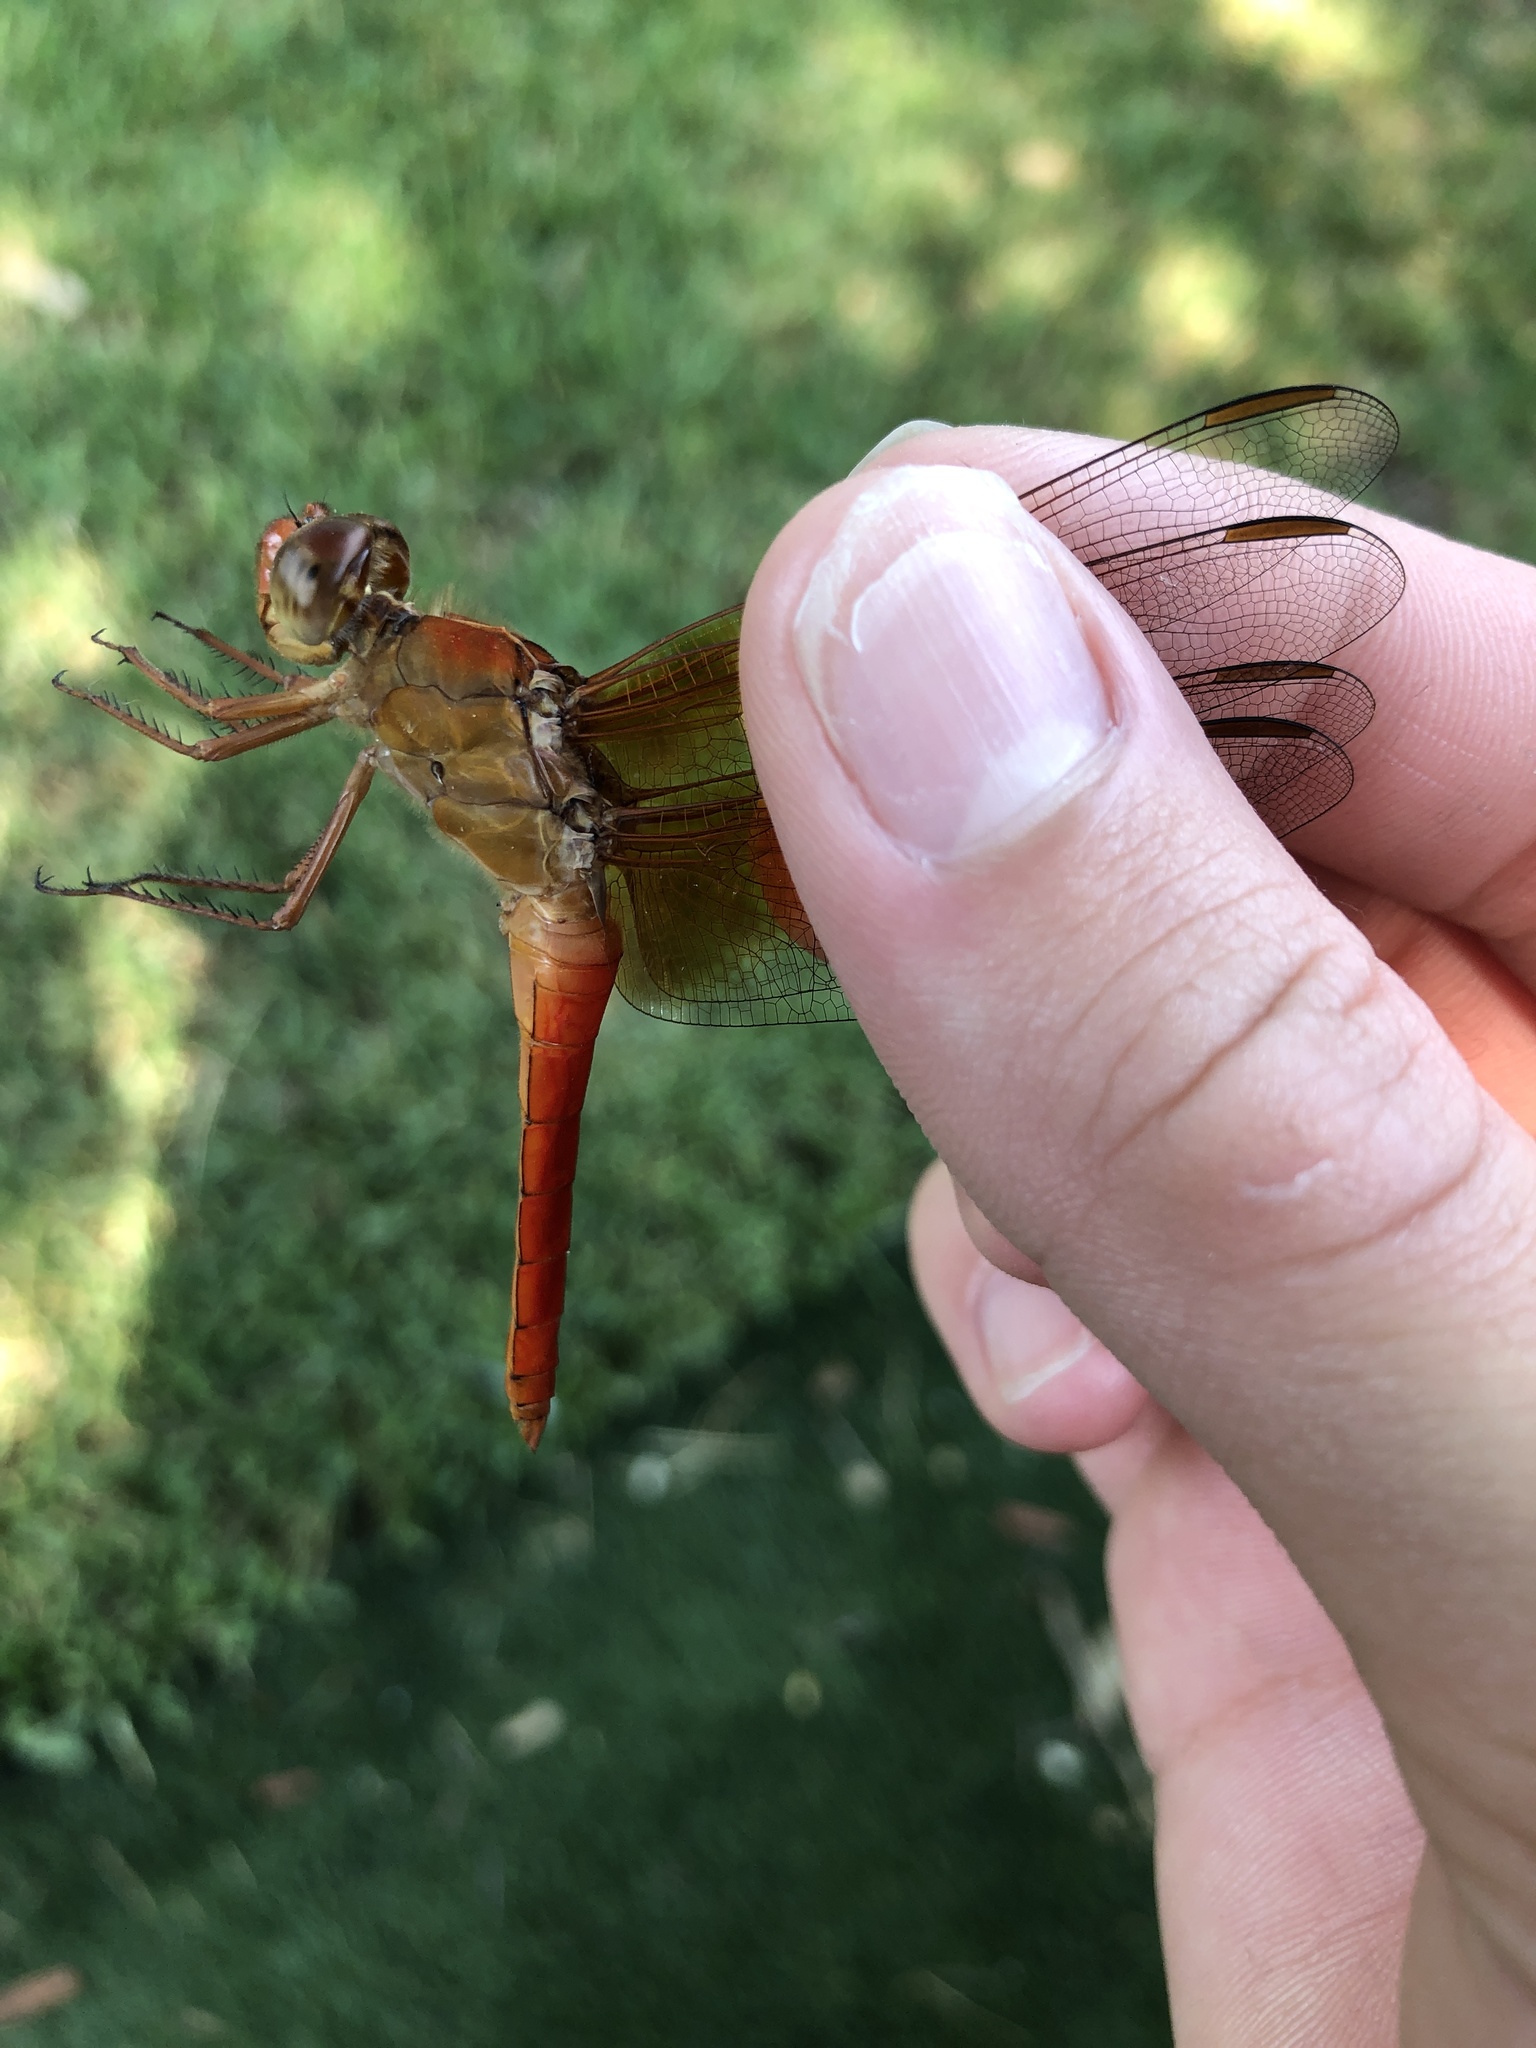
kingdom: Animalia
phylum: Arthropoda
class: Insecta
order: Odonata
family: Libellulidae
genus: Libellula
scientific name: Libellula croceipennis
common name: Neon skimmer
